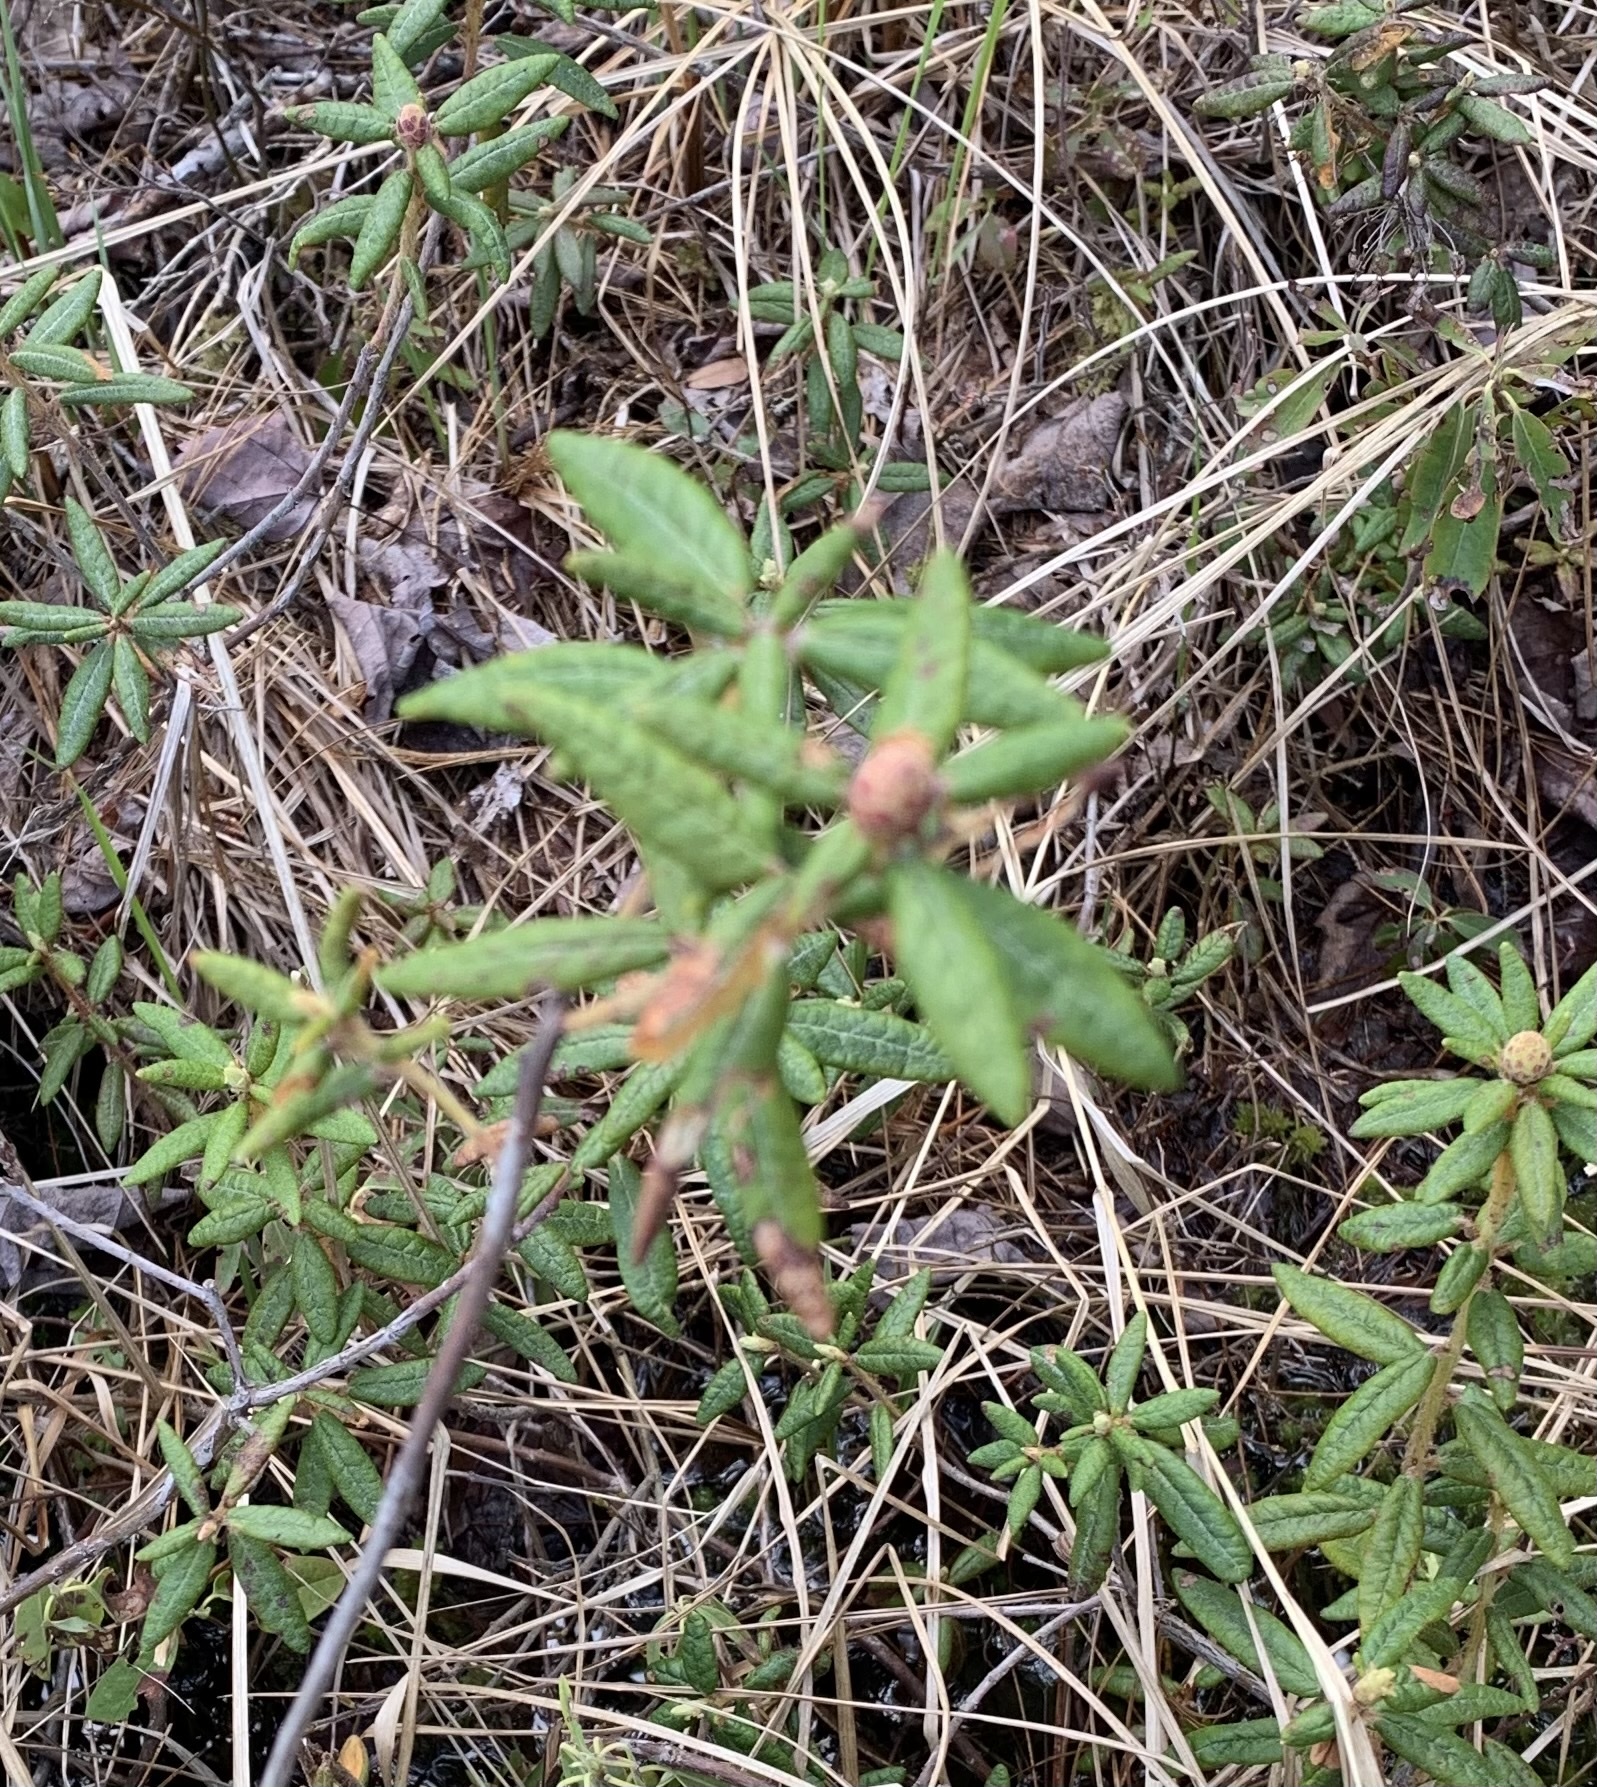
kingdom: Plantae
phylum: Tracheophyta
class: Magnoliopsida
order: Ericales
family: Ericaceae
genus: Rhododendron
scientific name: Rhododendron groenlandicum
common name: Bog labrador tea
